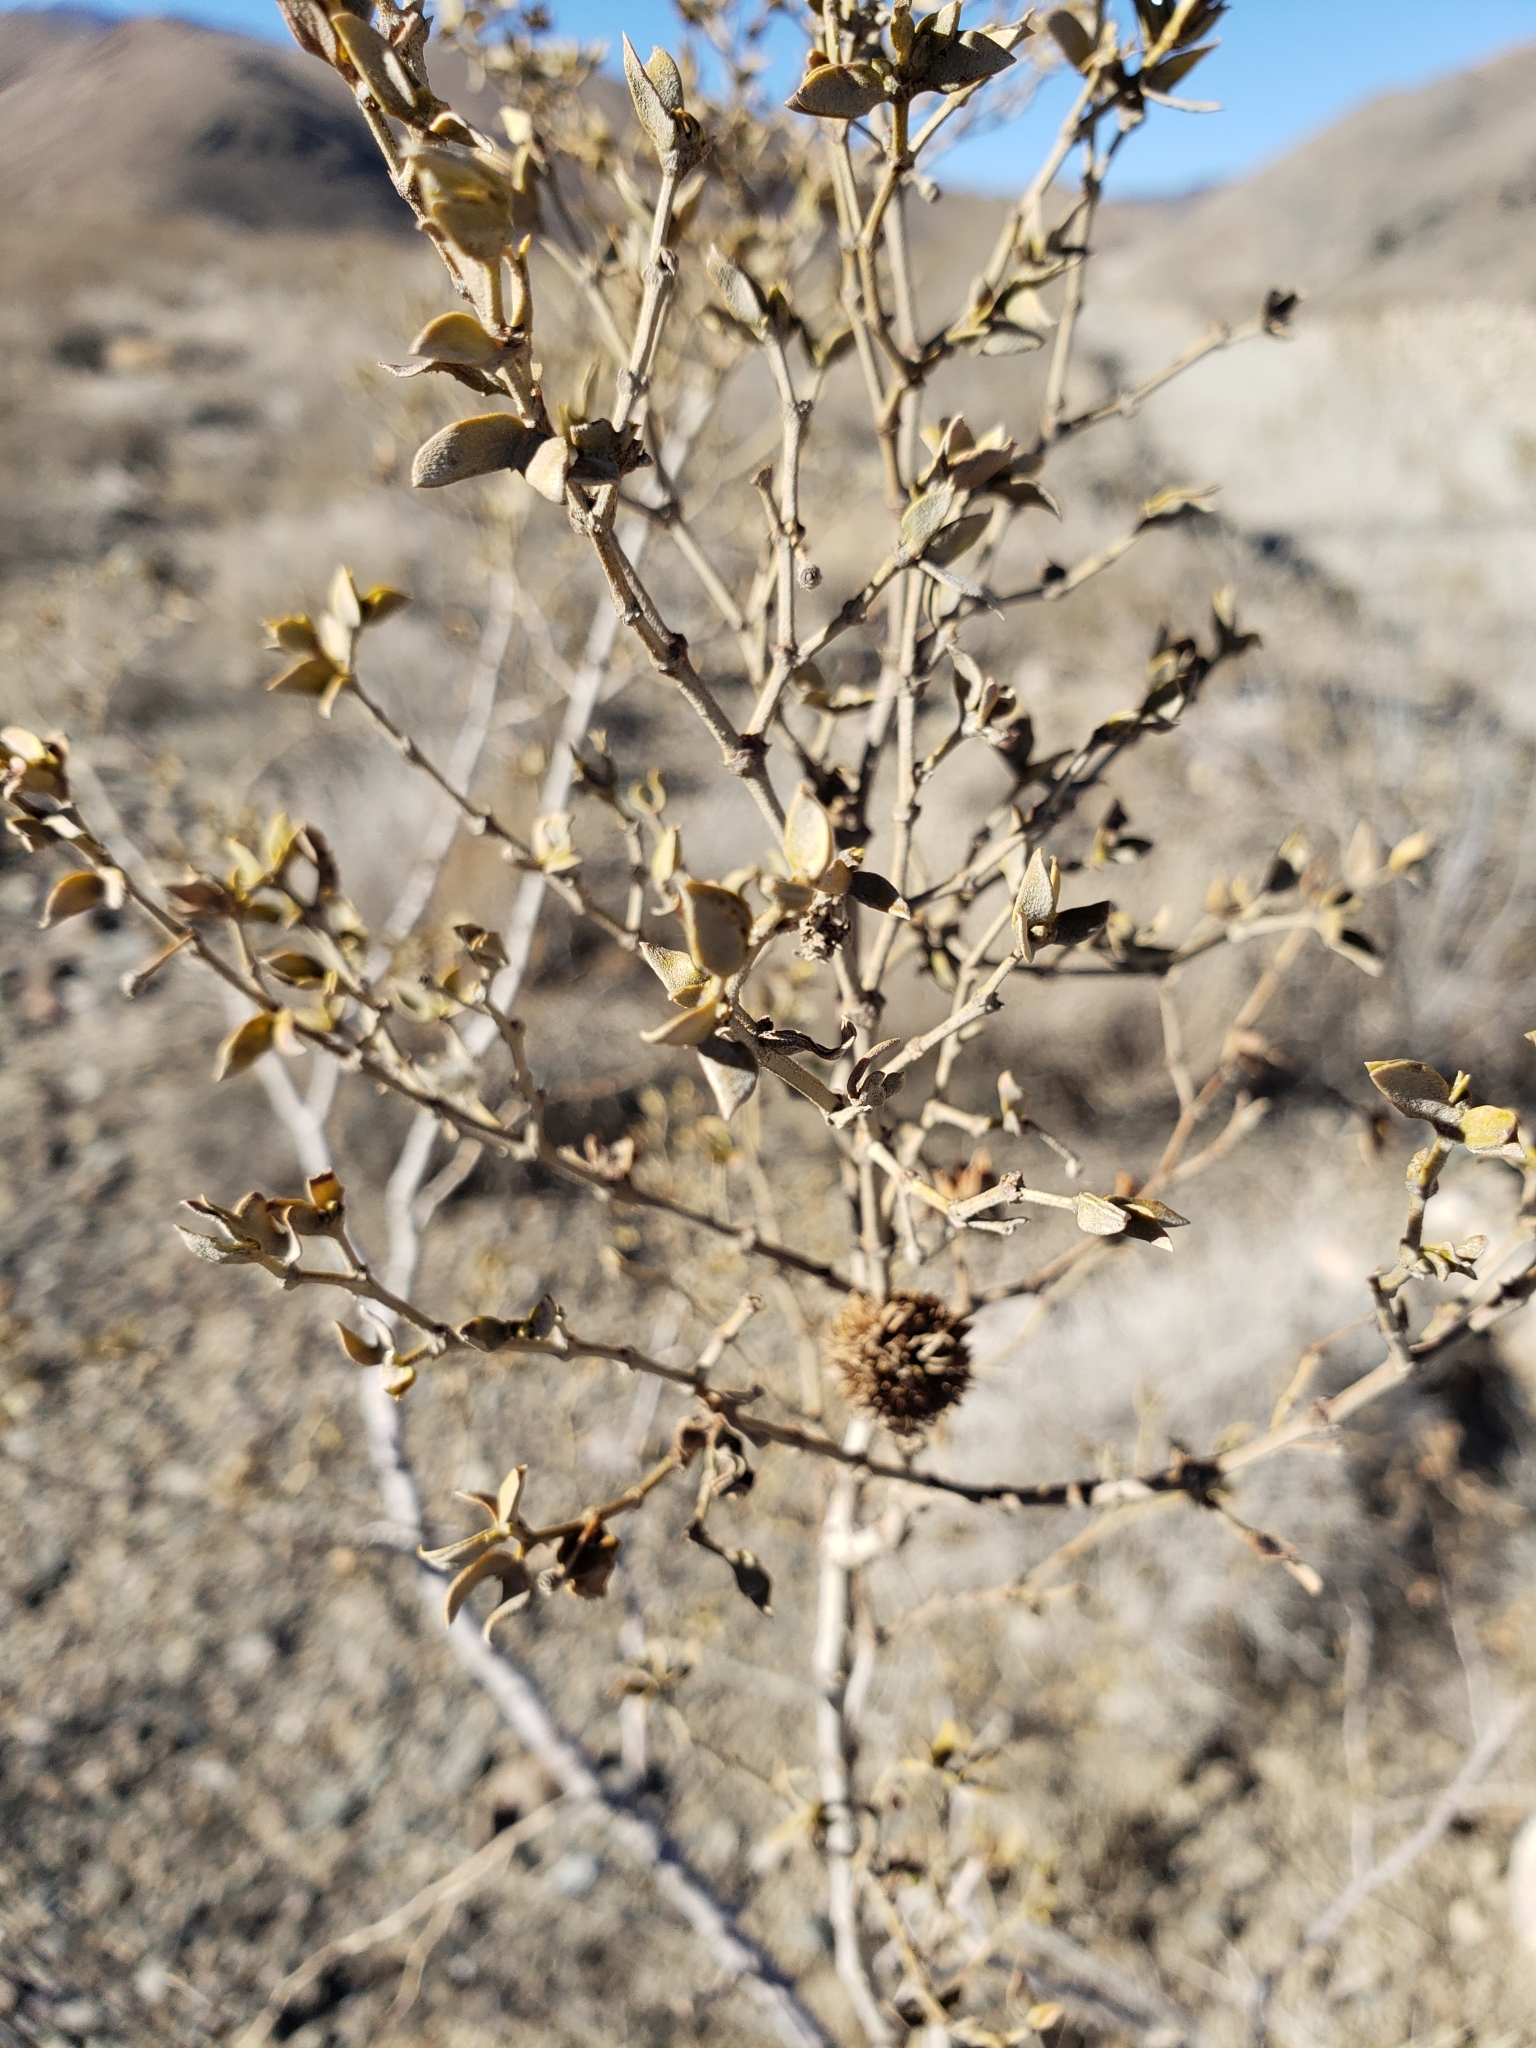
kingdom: Animalia
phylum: Arthropoda
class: Insecta
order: Diptera
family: Cecidomyiidae
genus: Asphondylia
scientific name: Asphondylia auripila
